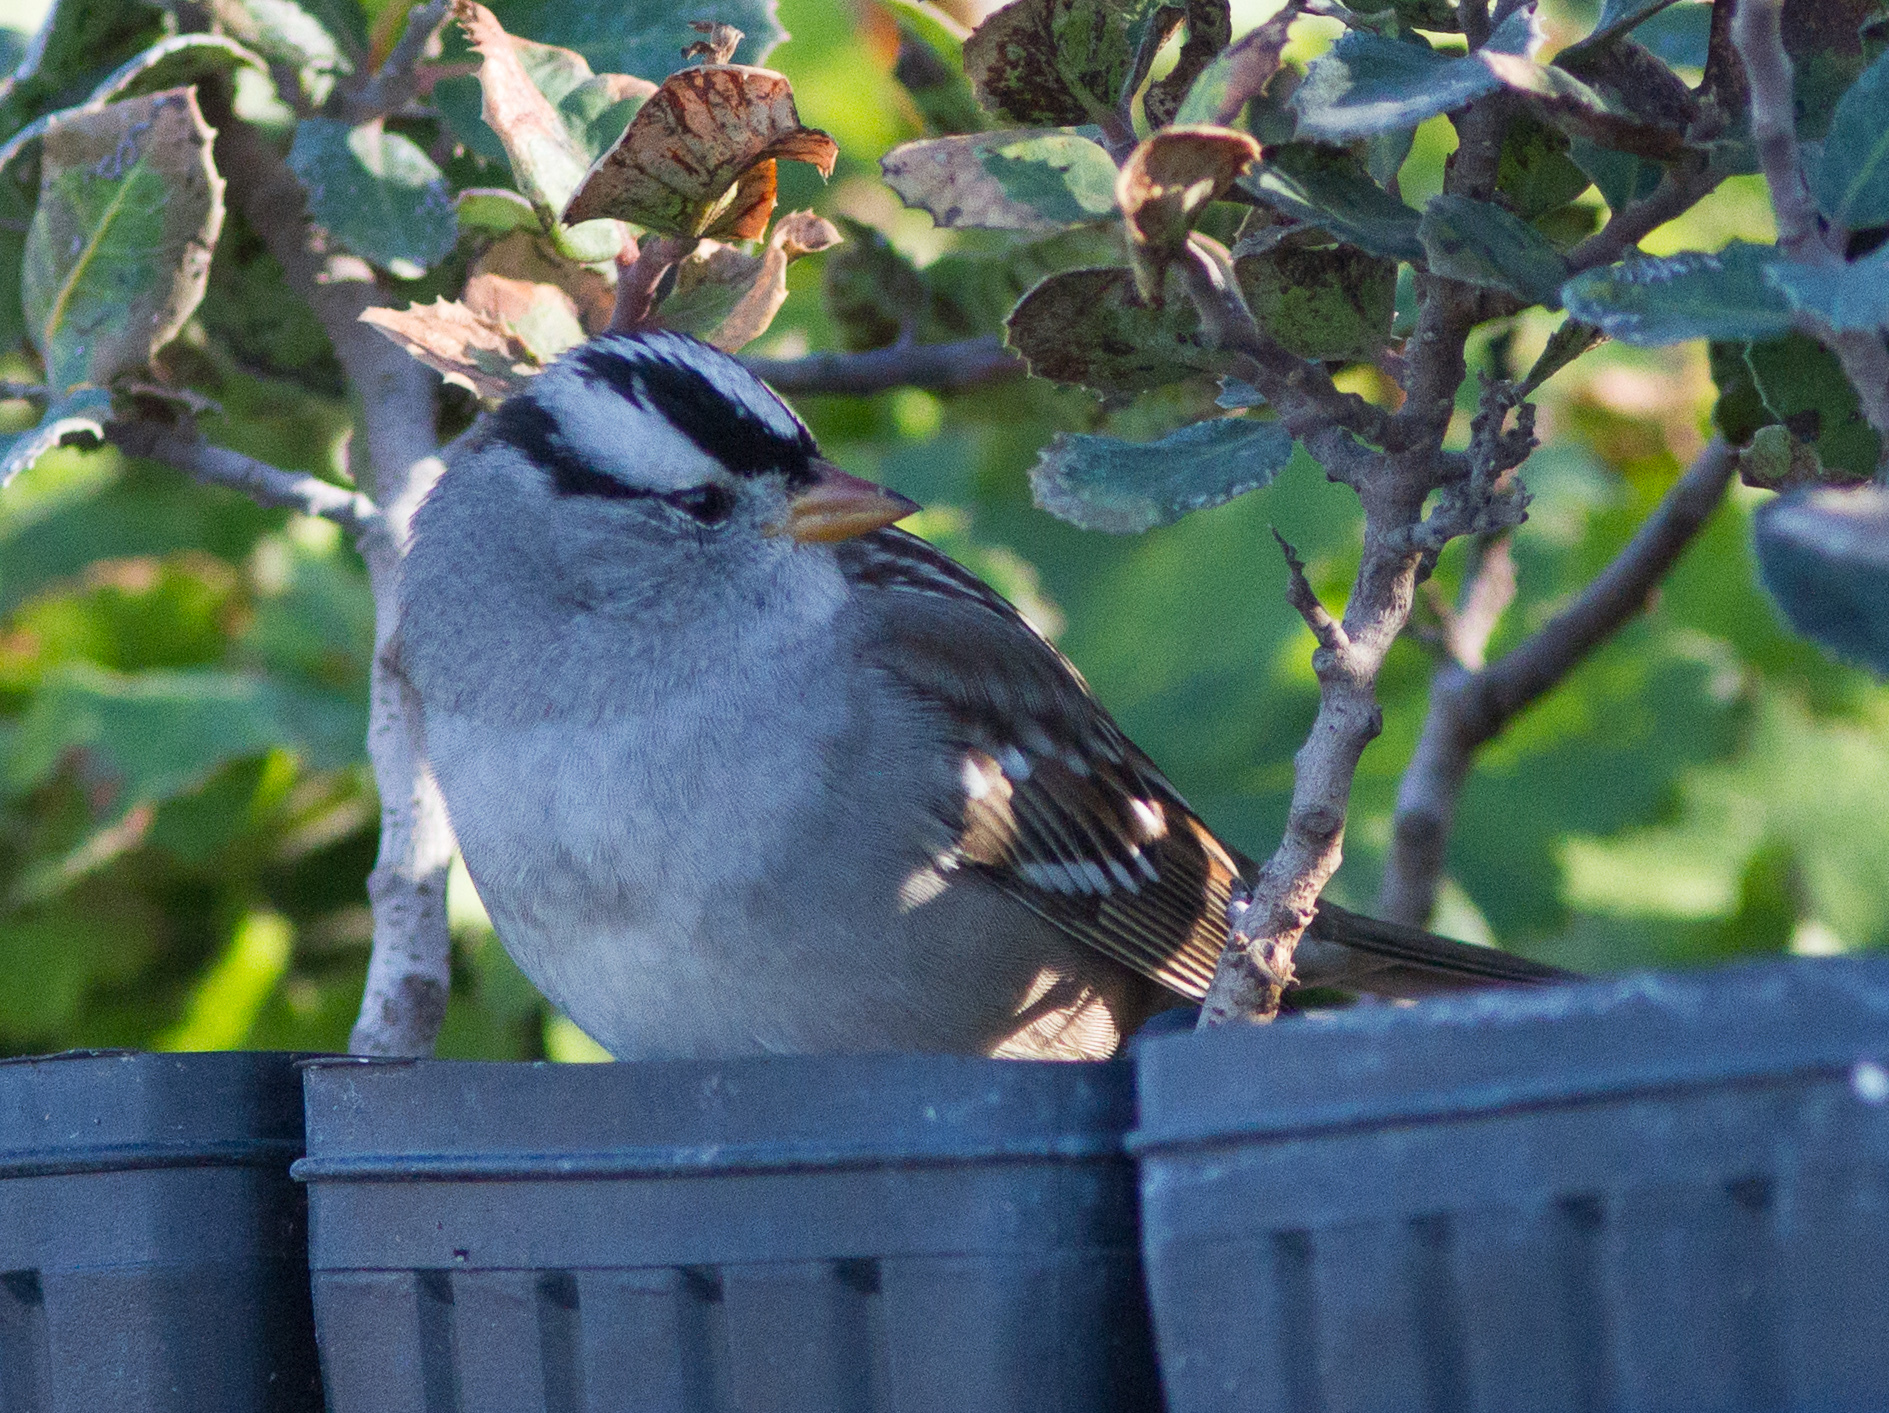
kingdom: Animalia
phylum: Chordata
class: Aves
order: Passeriformes
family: Passerellidae
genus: Zonotrichia
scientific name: Zonotrichia leucophrys
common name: White-crowned sparrow
